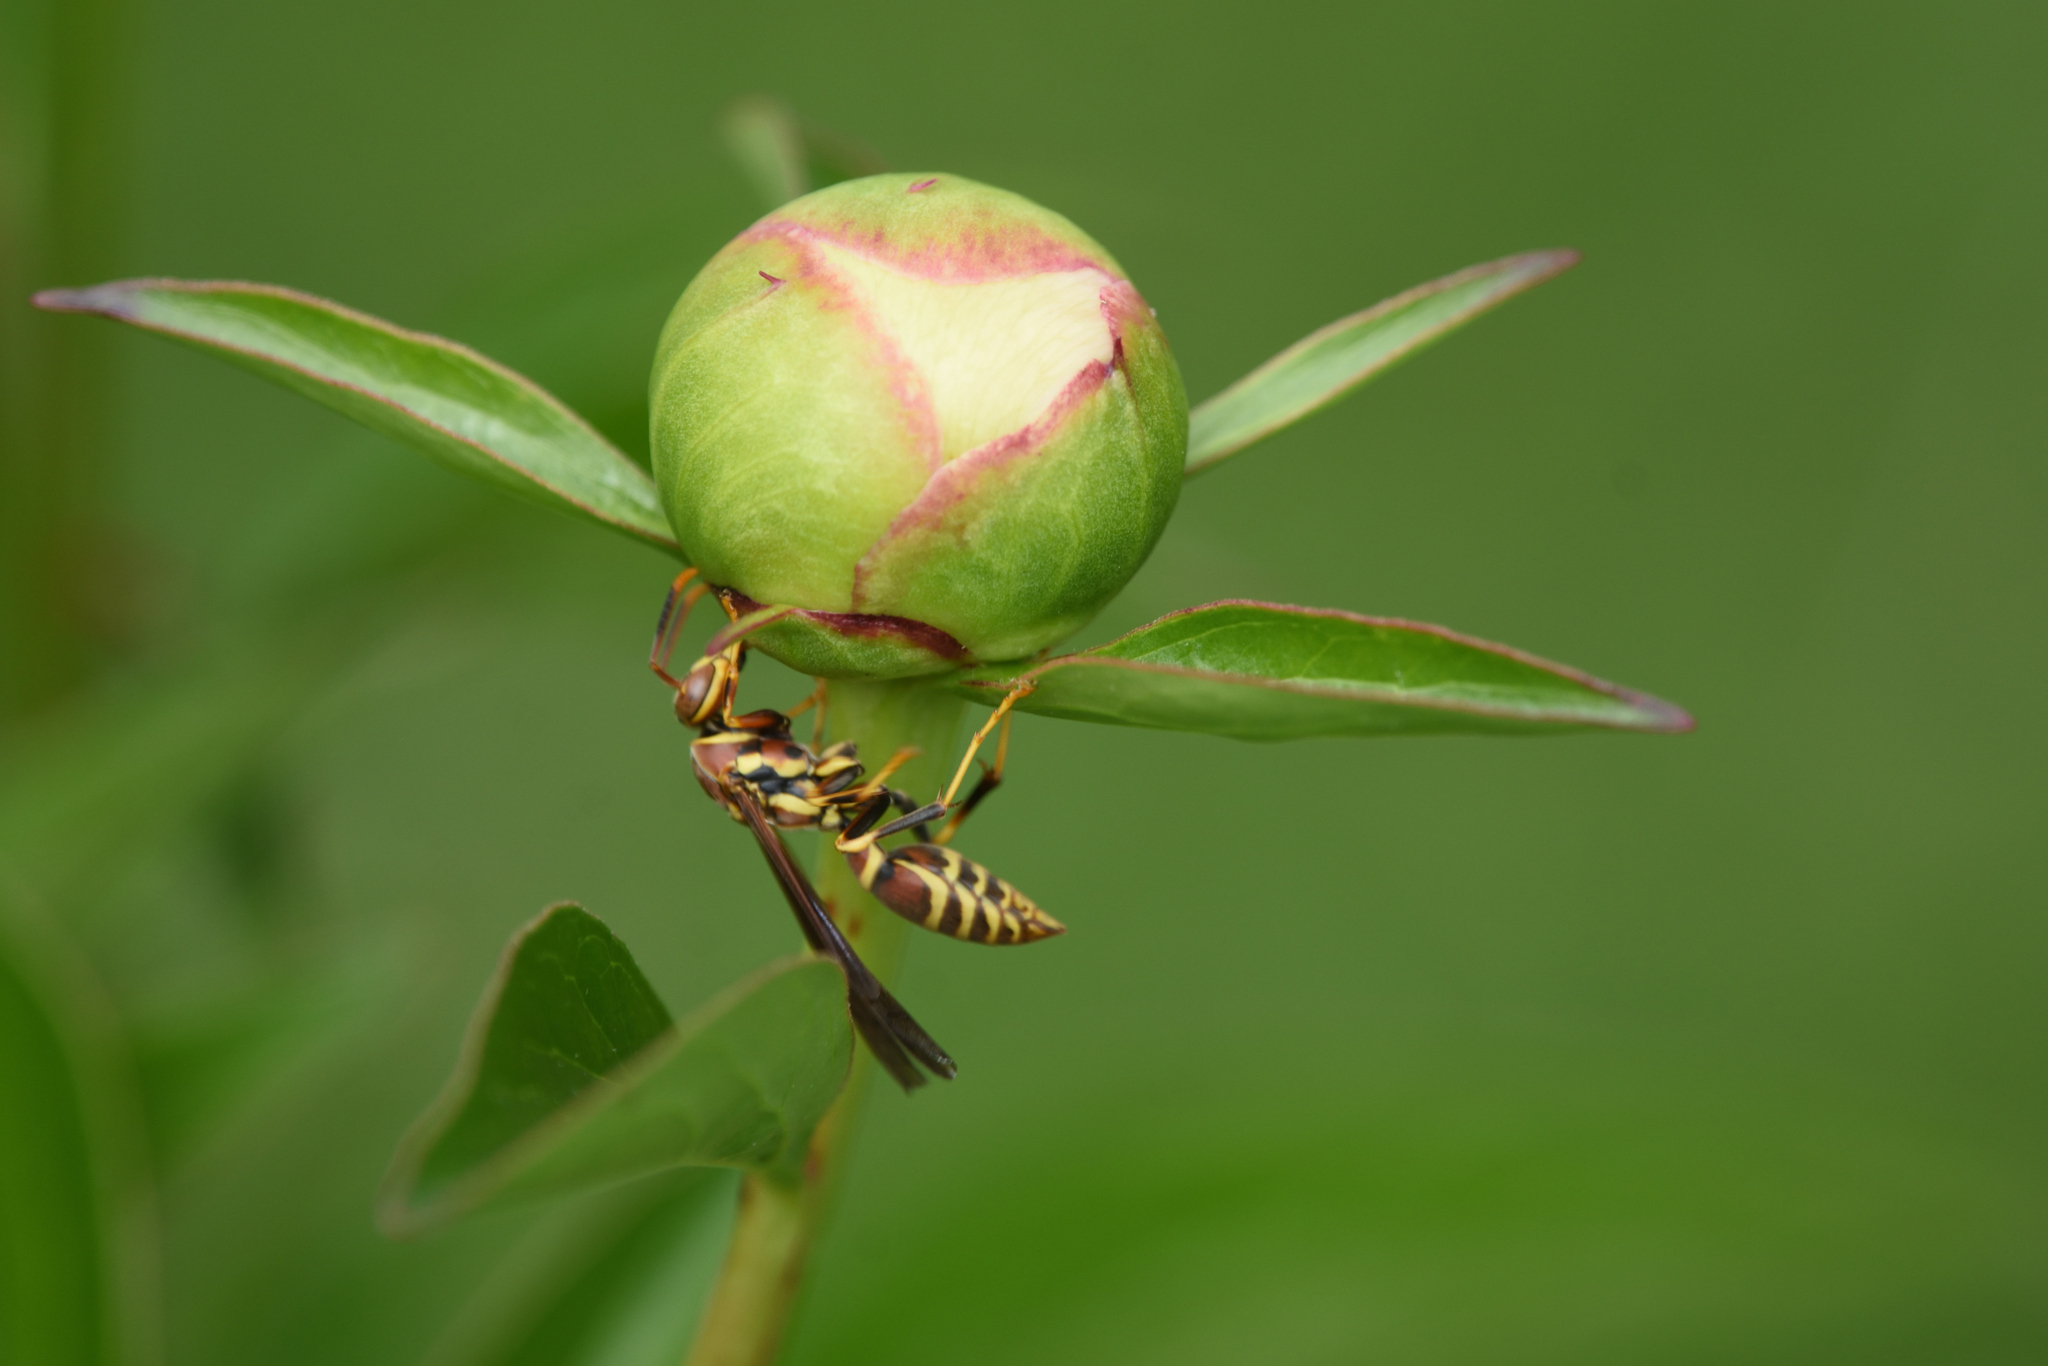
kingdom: Animalia
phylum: Arthropoda
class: Insecta
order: Hymenoptera
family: Eumenidae
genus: Polistes
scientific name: Polistes exclamans
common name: Paper wasp
